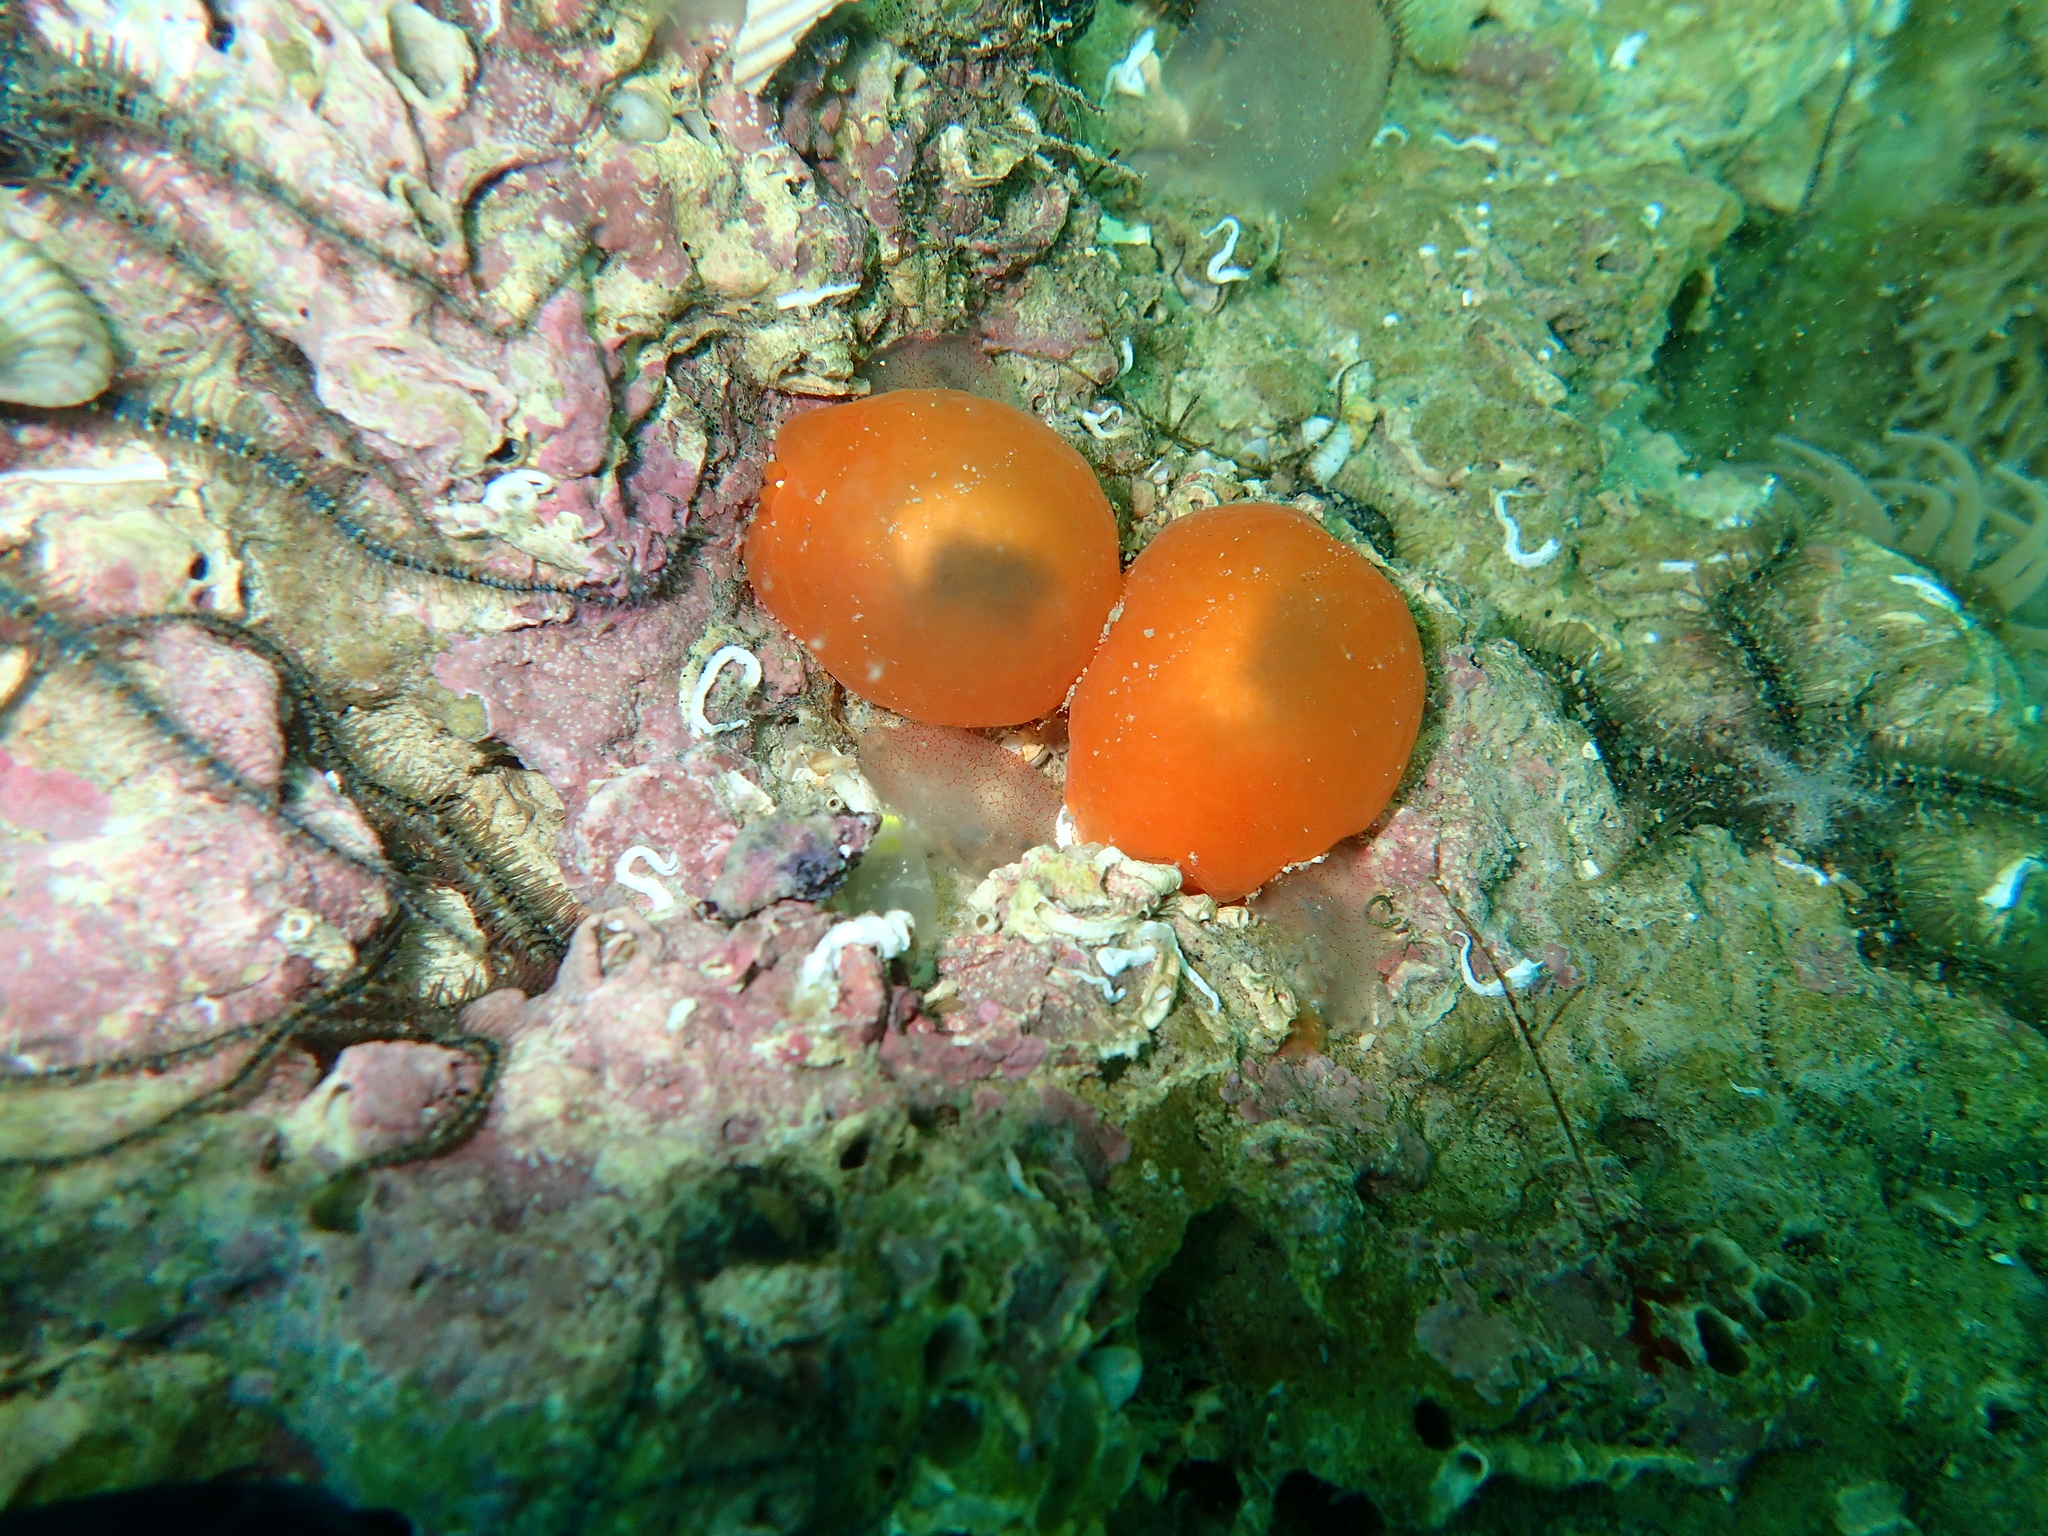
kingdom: Animalia
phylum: Mollusca
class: Gastropoda
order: Pleurobranchida
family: Pleurobranchidae
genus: Berthellina
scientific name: Berthellina edwardsii
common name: Peach seaslug
